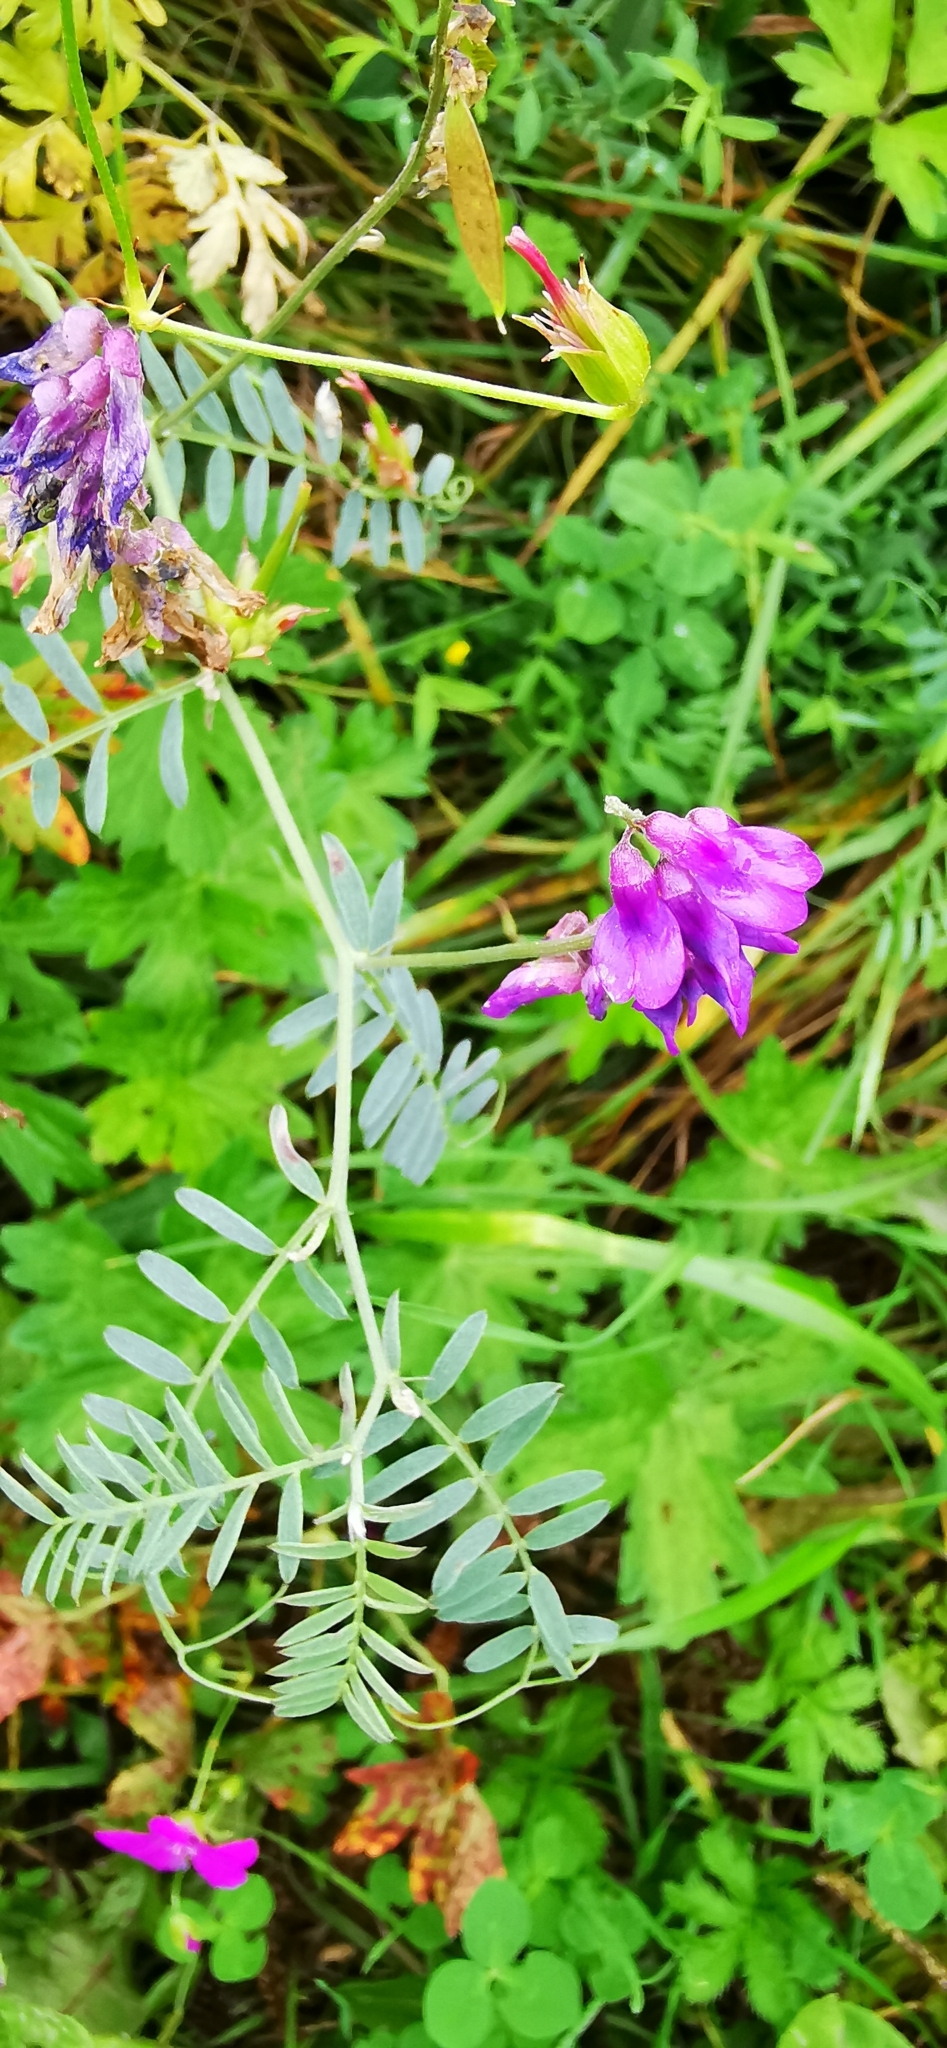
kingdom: Plantae
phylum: Tracheophyta
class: Magnoliopsida
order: Fabales
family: Fabaceae
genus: Vicia
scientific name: Vicia cracca
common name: Bird vetch
